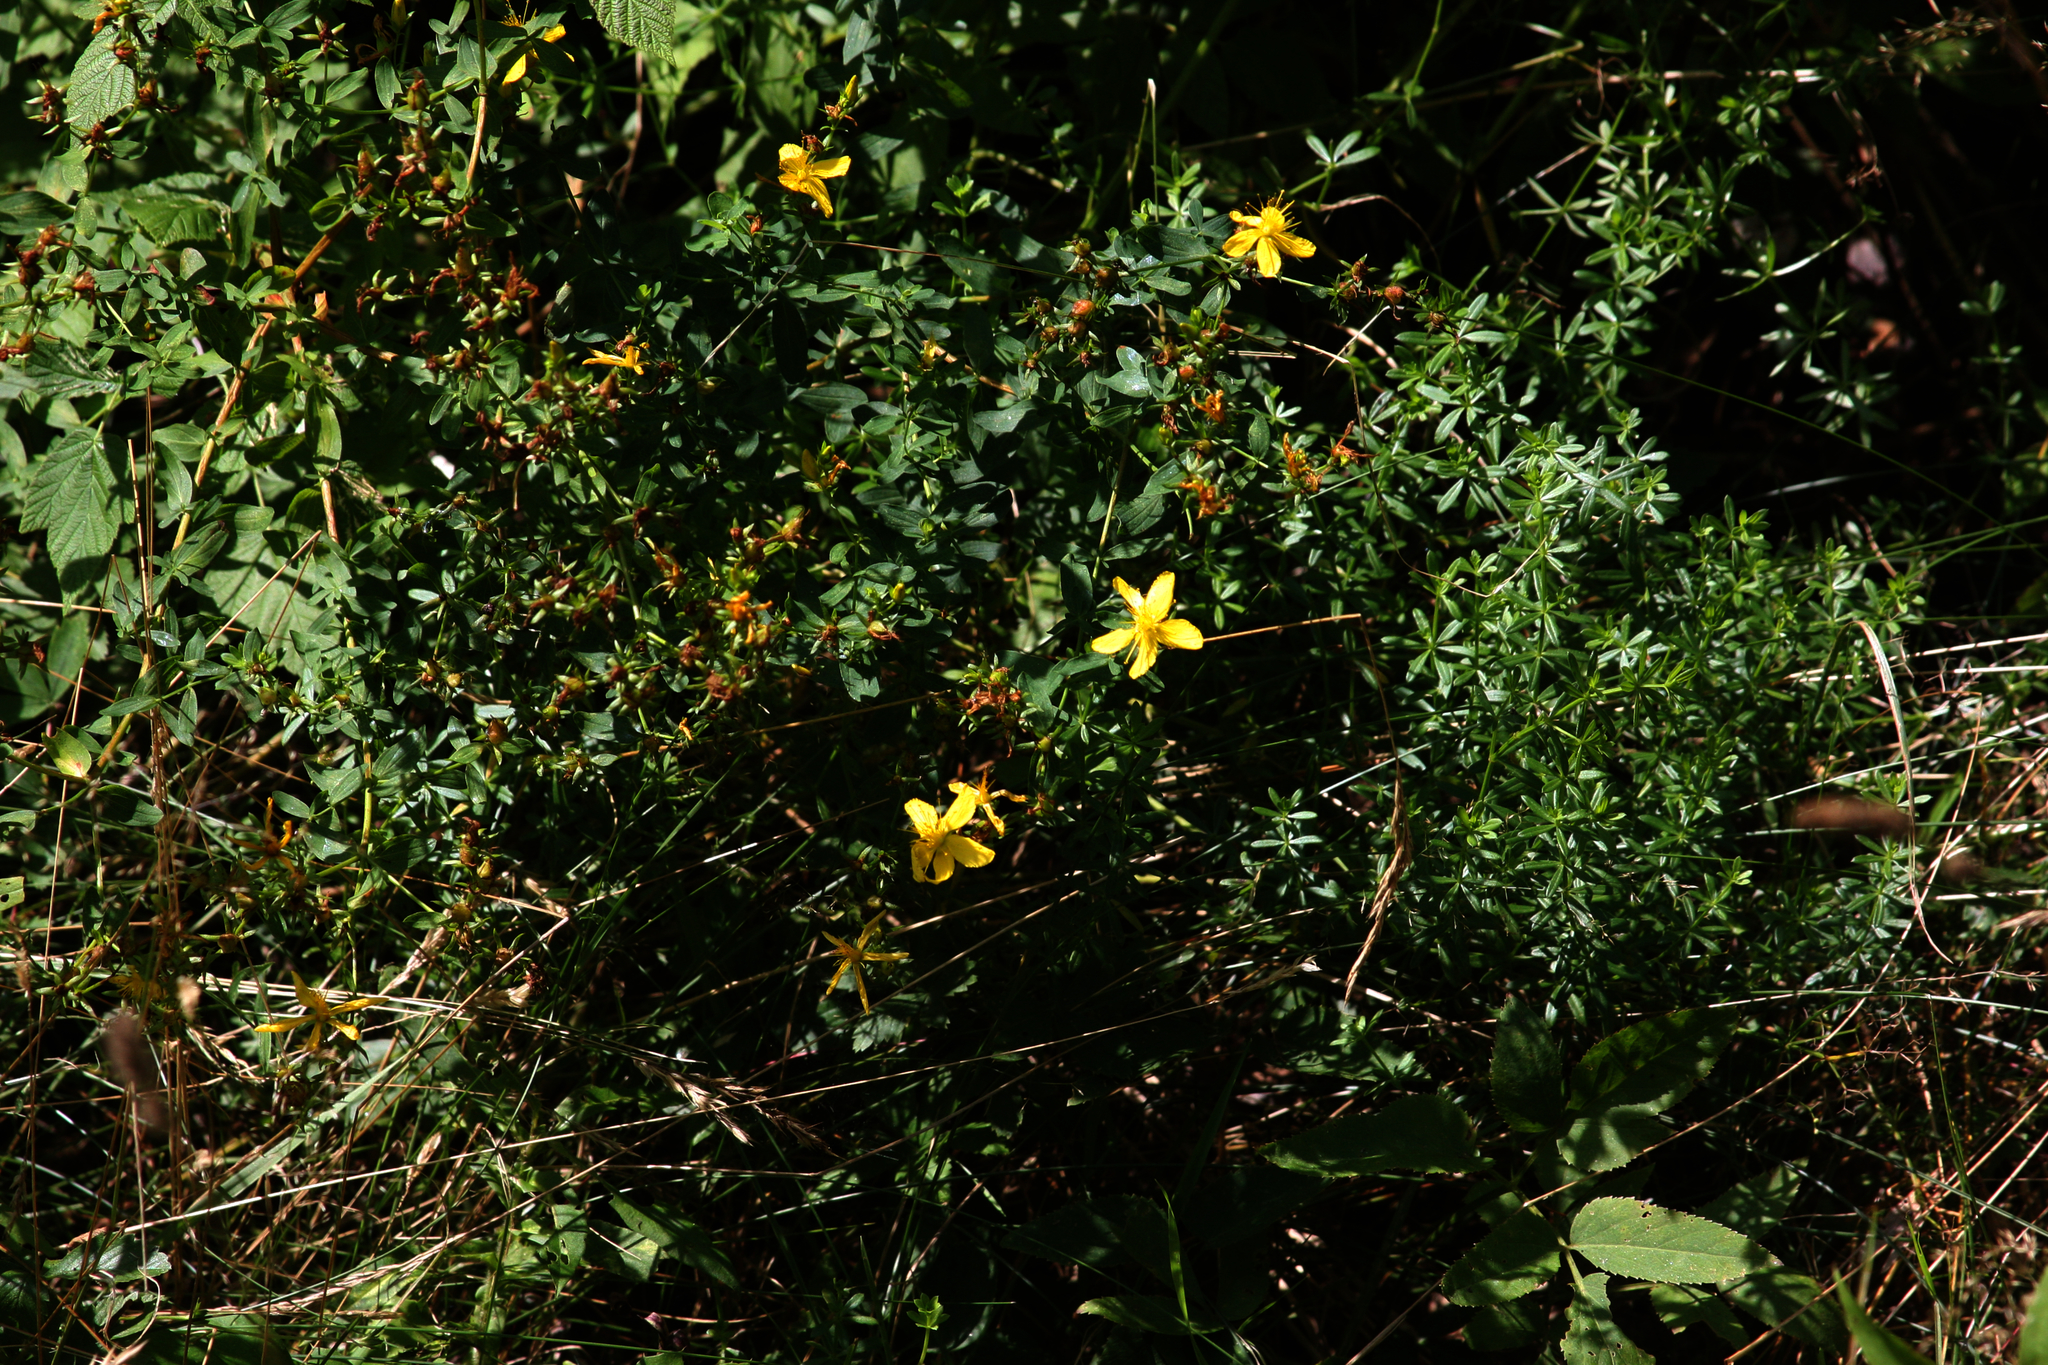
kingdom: Plantae
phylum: Tracheophyta
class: Magnoliopsida
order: Malpighiales
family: Hypericaceae
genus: Hypericum
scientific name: Hypericum perforatum
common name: Common st. johnswort
